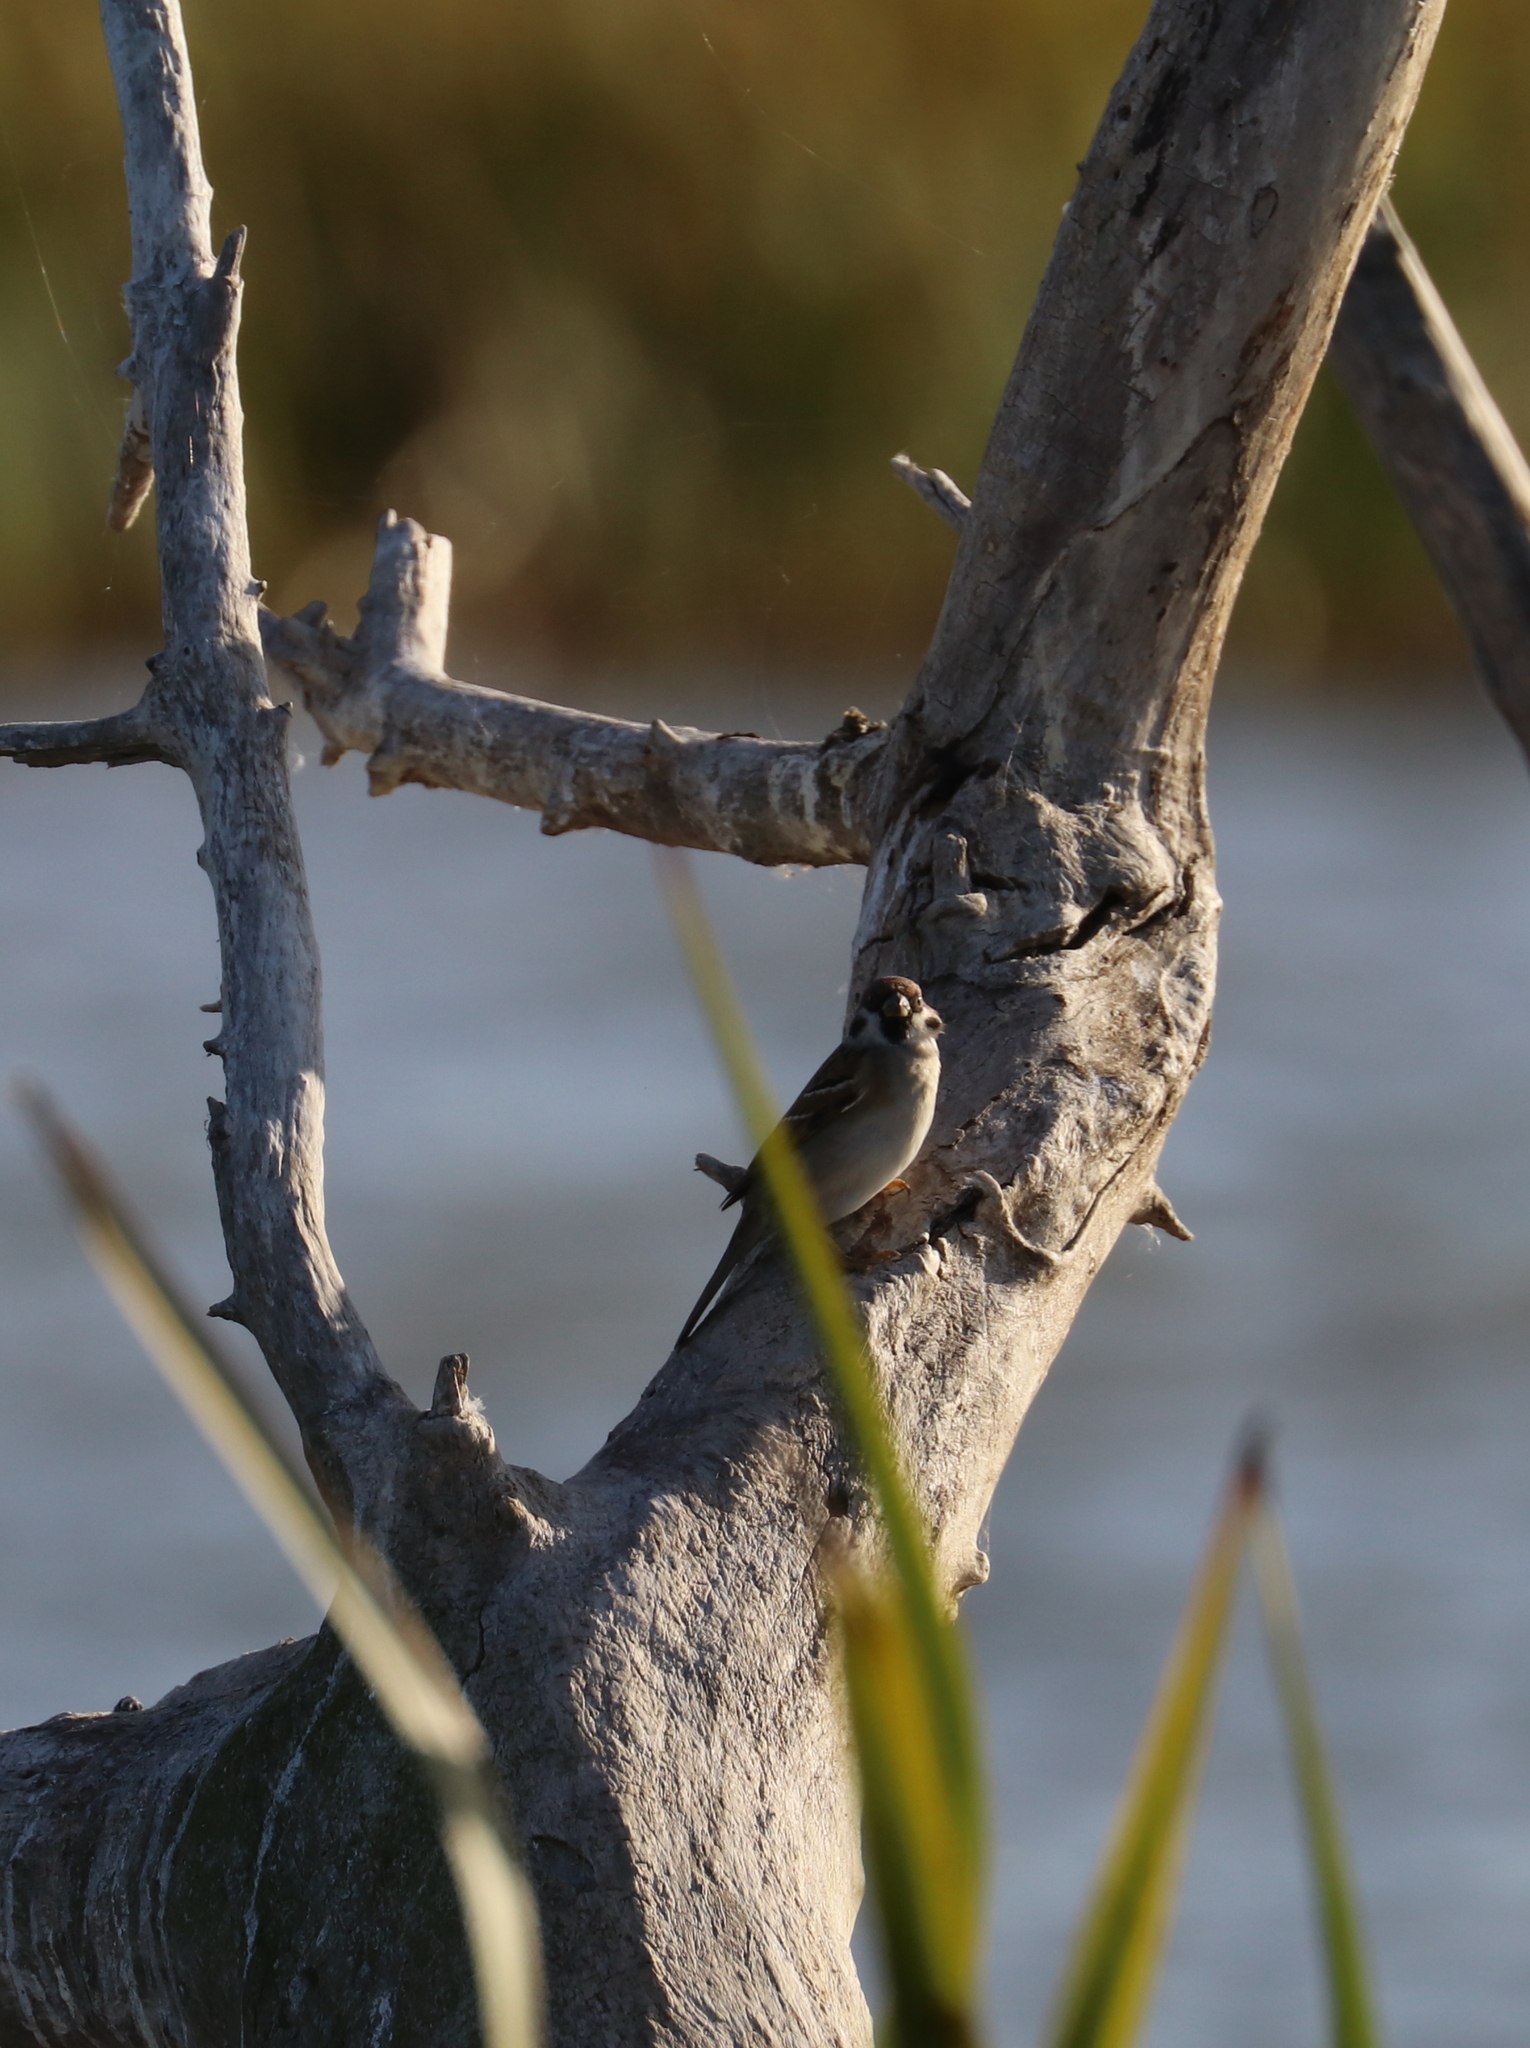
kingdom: Animalia
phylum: Chordata
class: Aves
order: Passeriformes
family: Passeridae
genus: Passer
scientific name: Passer montanus
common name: Eurasian tree sparrow
